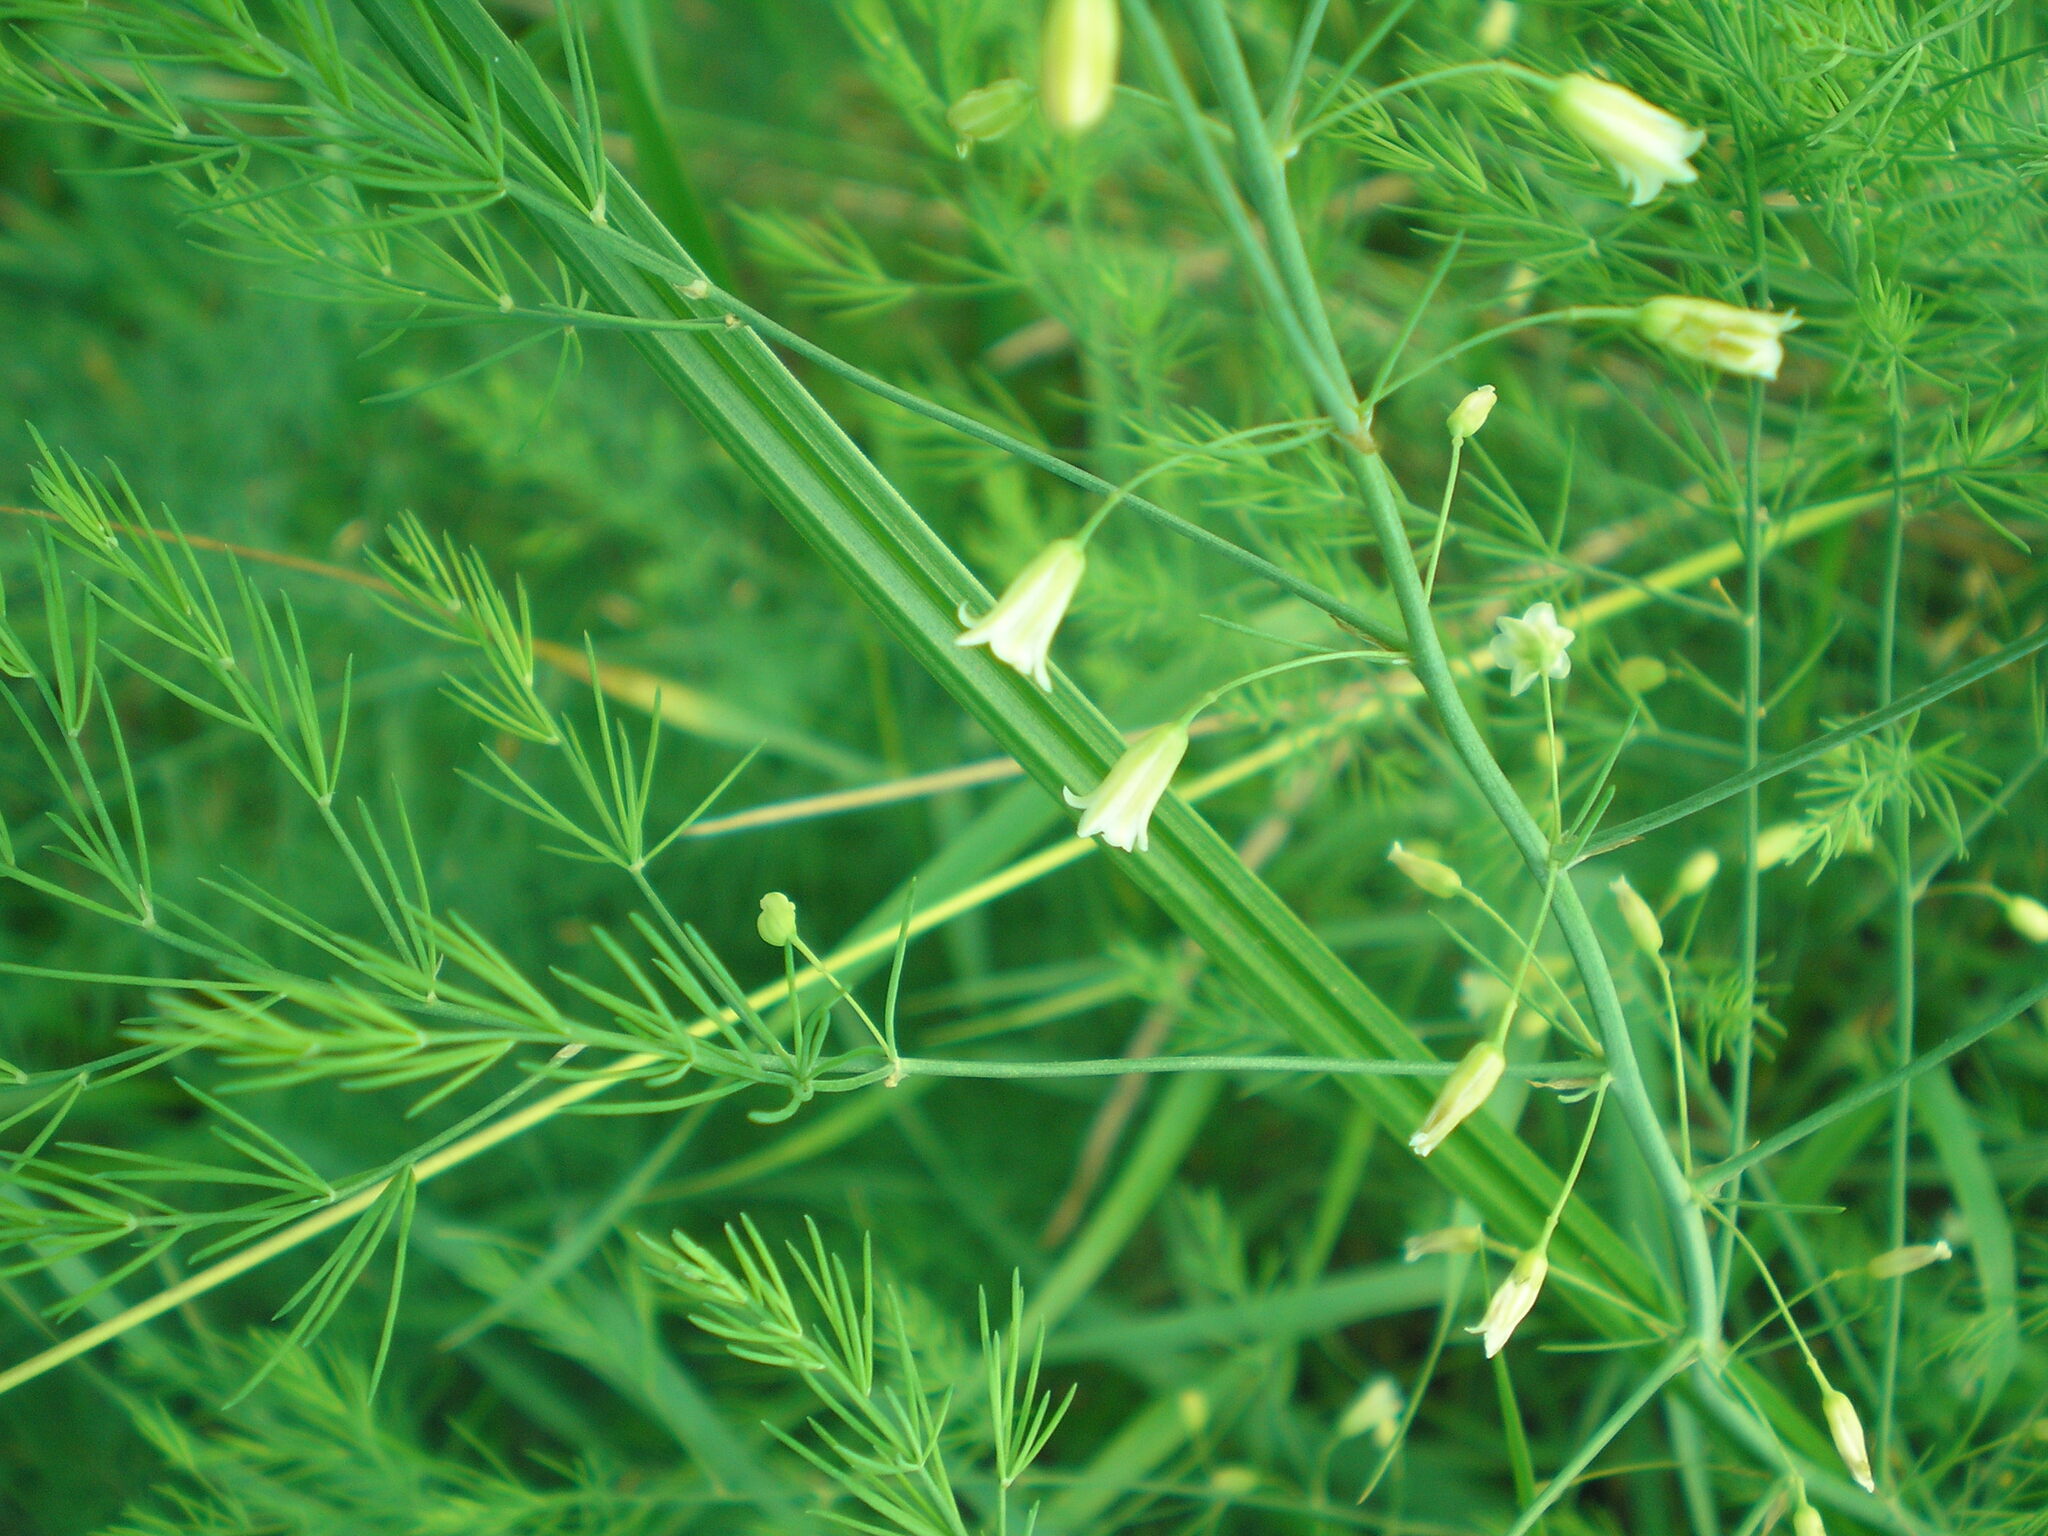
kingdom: Plantae
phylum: Tracheophyta
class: Liliopsida
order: Asparagales
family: Asparagaceae
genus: Asparagus
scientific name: Asparagus officinalis
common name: Garden asparagus
